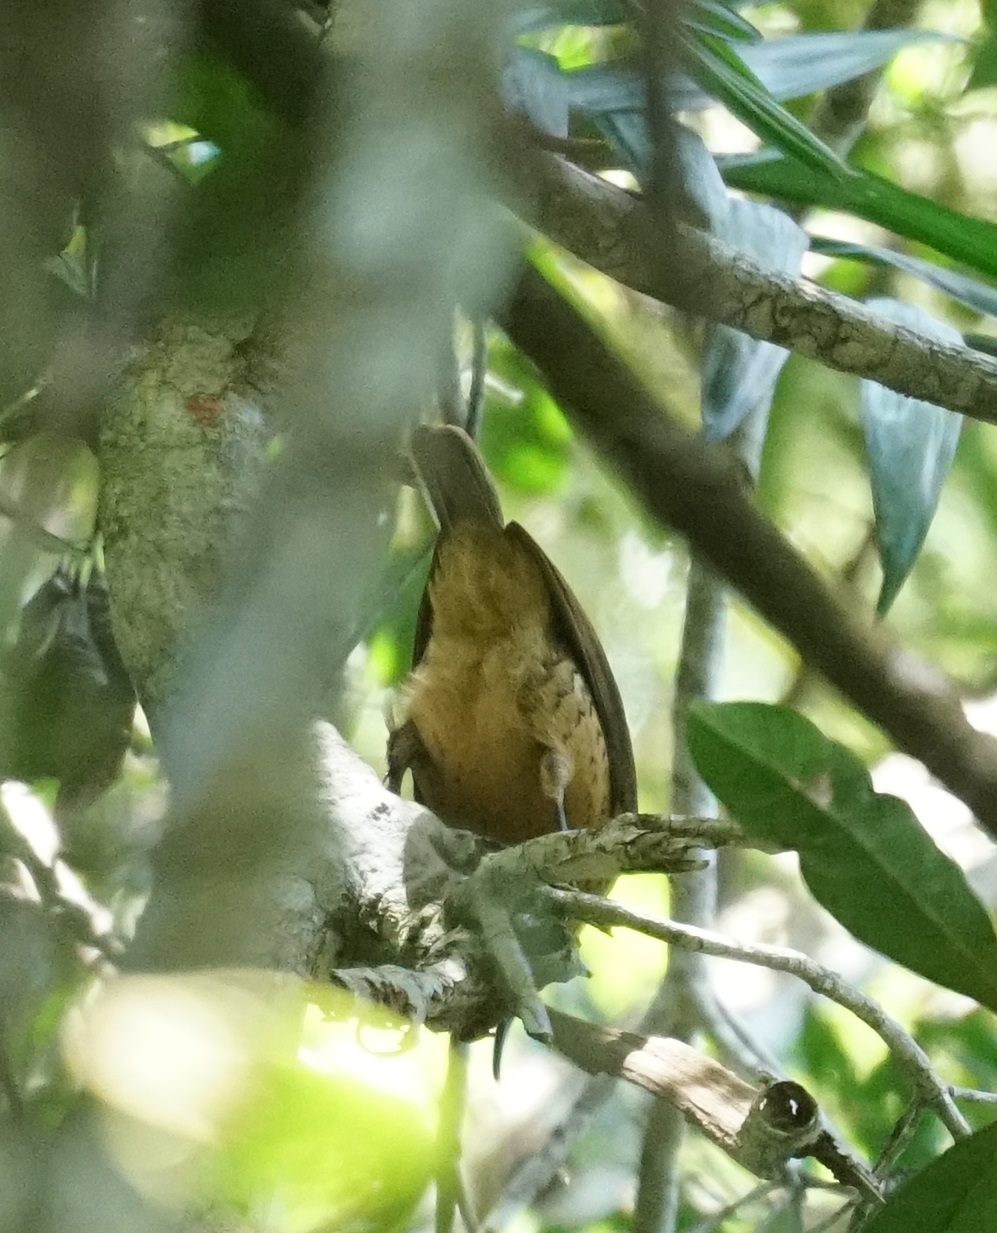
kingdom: Animalia
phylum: Chordata
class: Aves
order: Passeriformes
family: Paradisaeidae
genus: Ptiloris
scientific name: Ptiloris victoriae
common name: Victoria's riflebird
